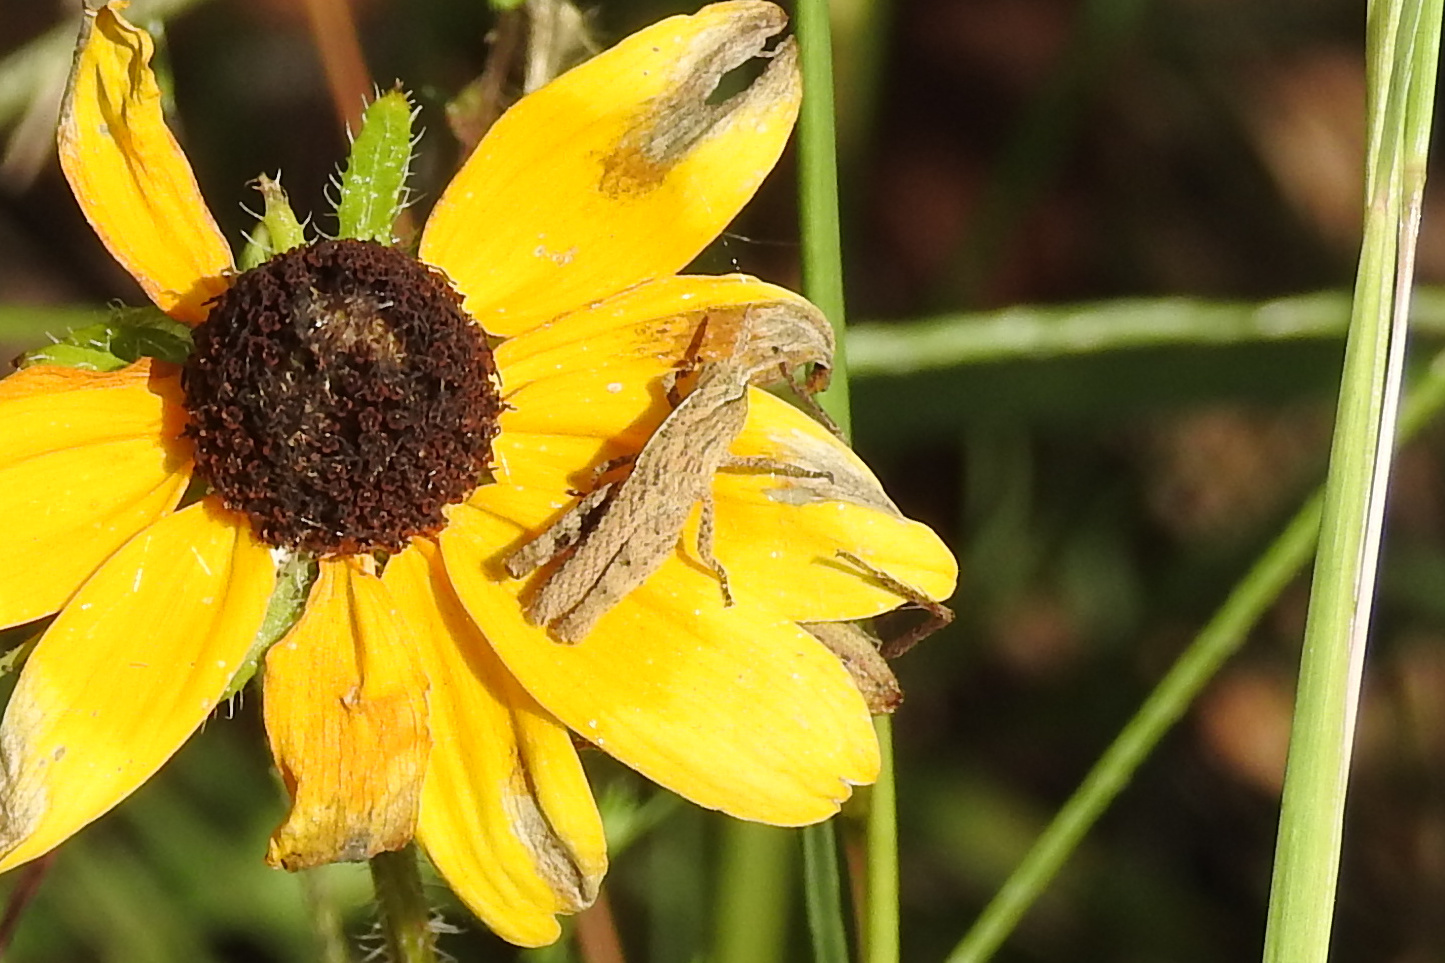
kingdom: Animalia
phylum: Arthropoda
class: Insecta
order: Orthoptera
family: Acrididae
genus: Chortophaga
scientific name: Chortophaga viridifasciata
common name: Green-striped grasshopper
